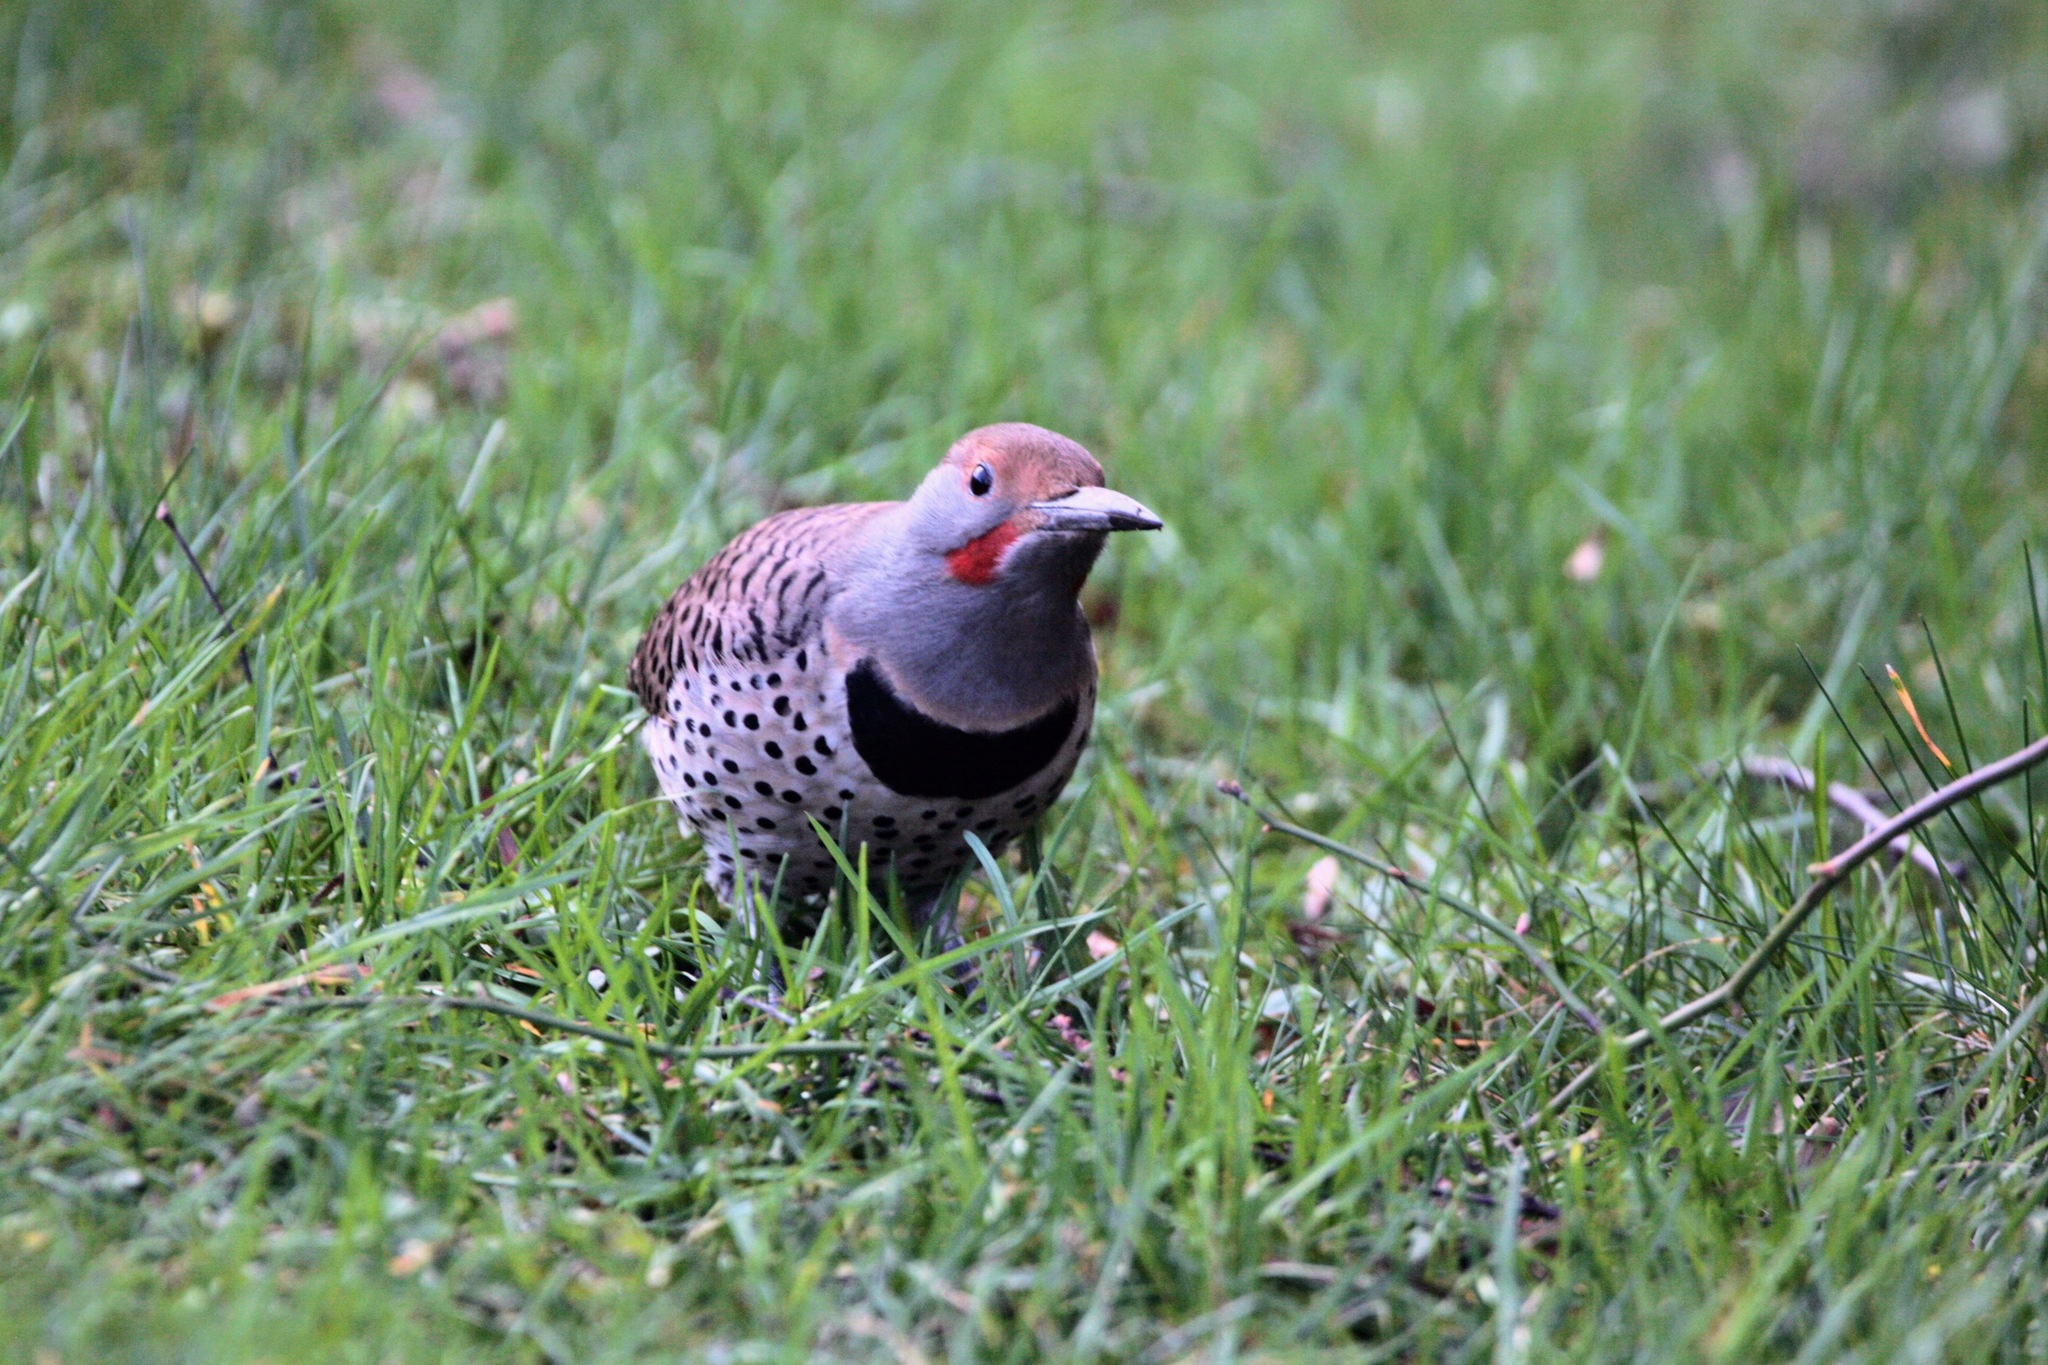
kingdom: Animalia
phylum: Chordata
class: Aves
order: Piciformes
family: Picidae
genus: Colaptes
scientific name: Colaptes auratus
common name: Northern flicker
